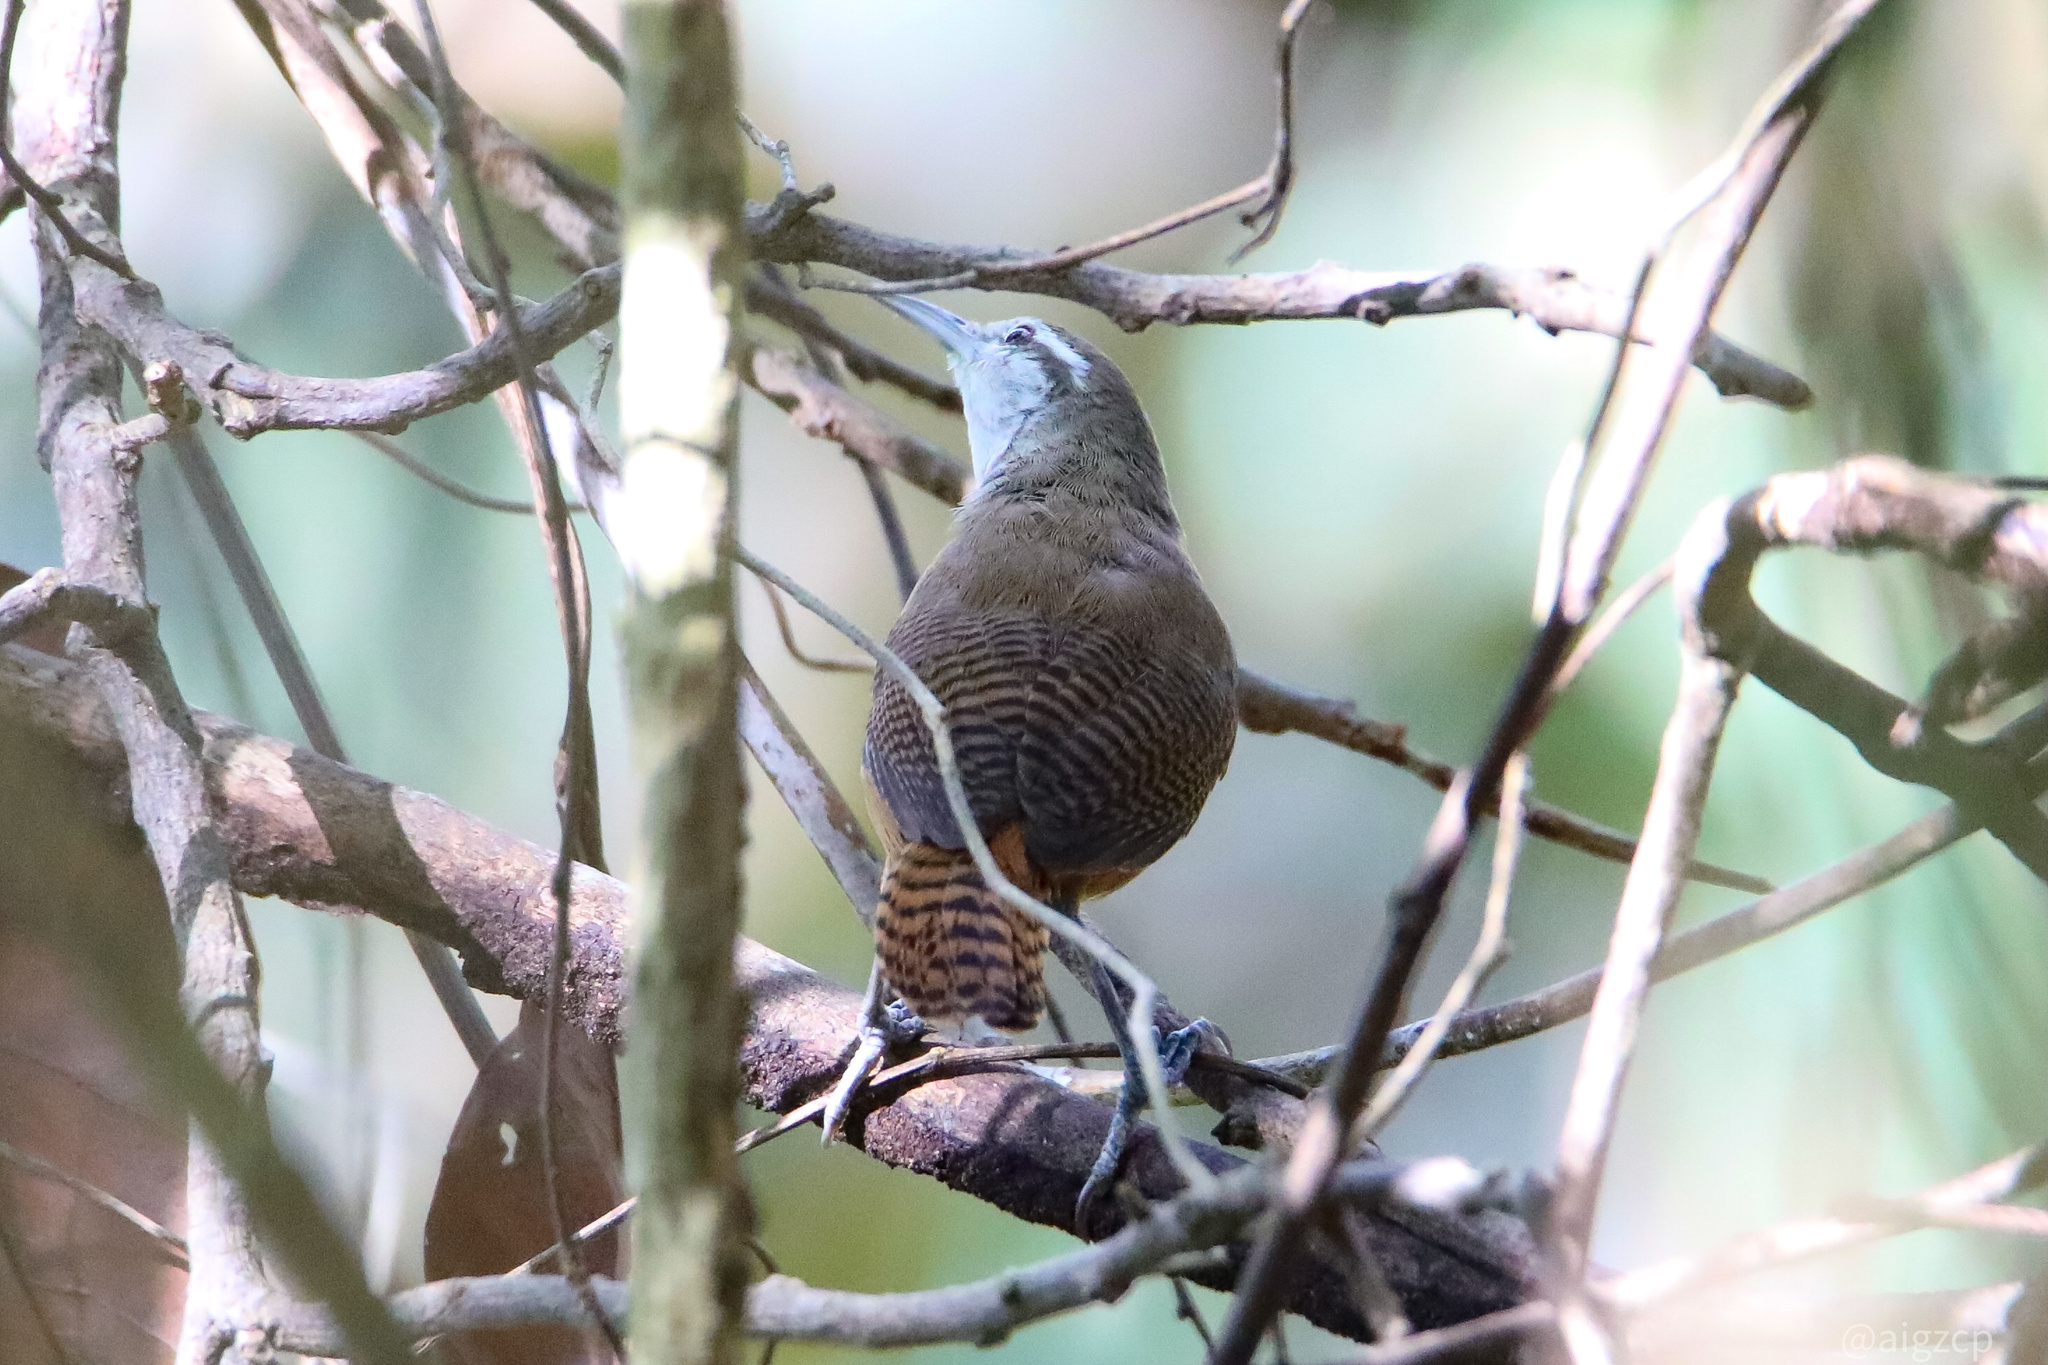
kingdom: Animalia
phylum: Chordata
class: Aves
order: Passeriformes
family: Troglodytidae
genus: Cantorchilus
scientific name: Cantorchilus leucotis
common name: Buff-breasted wren
